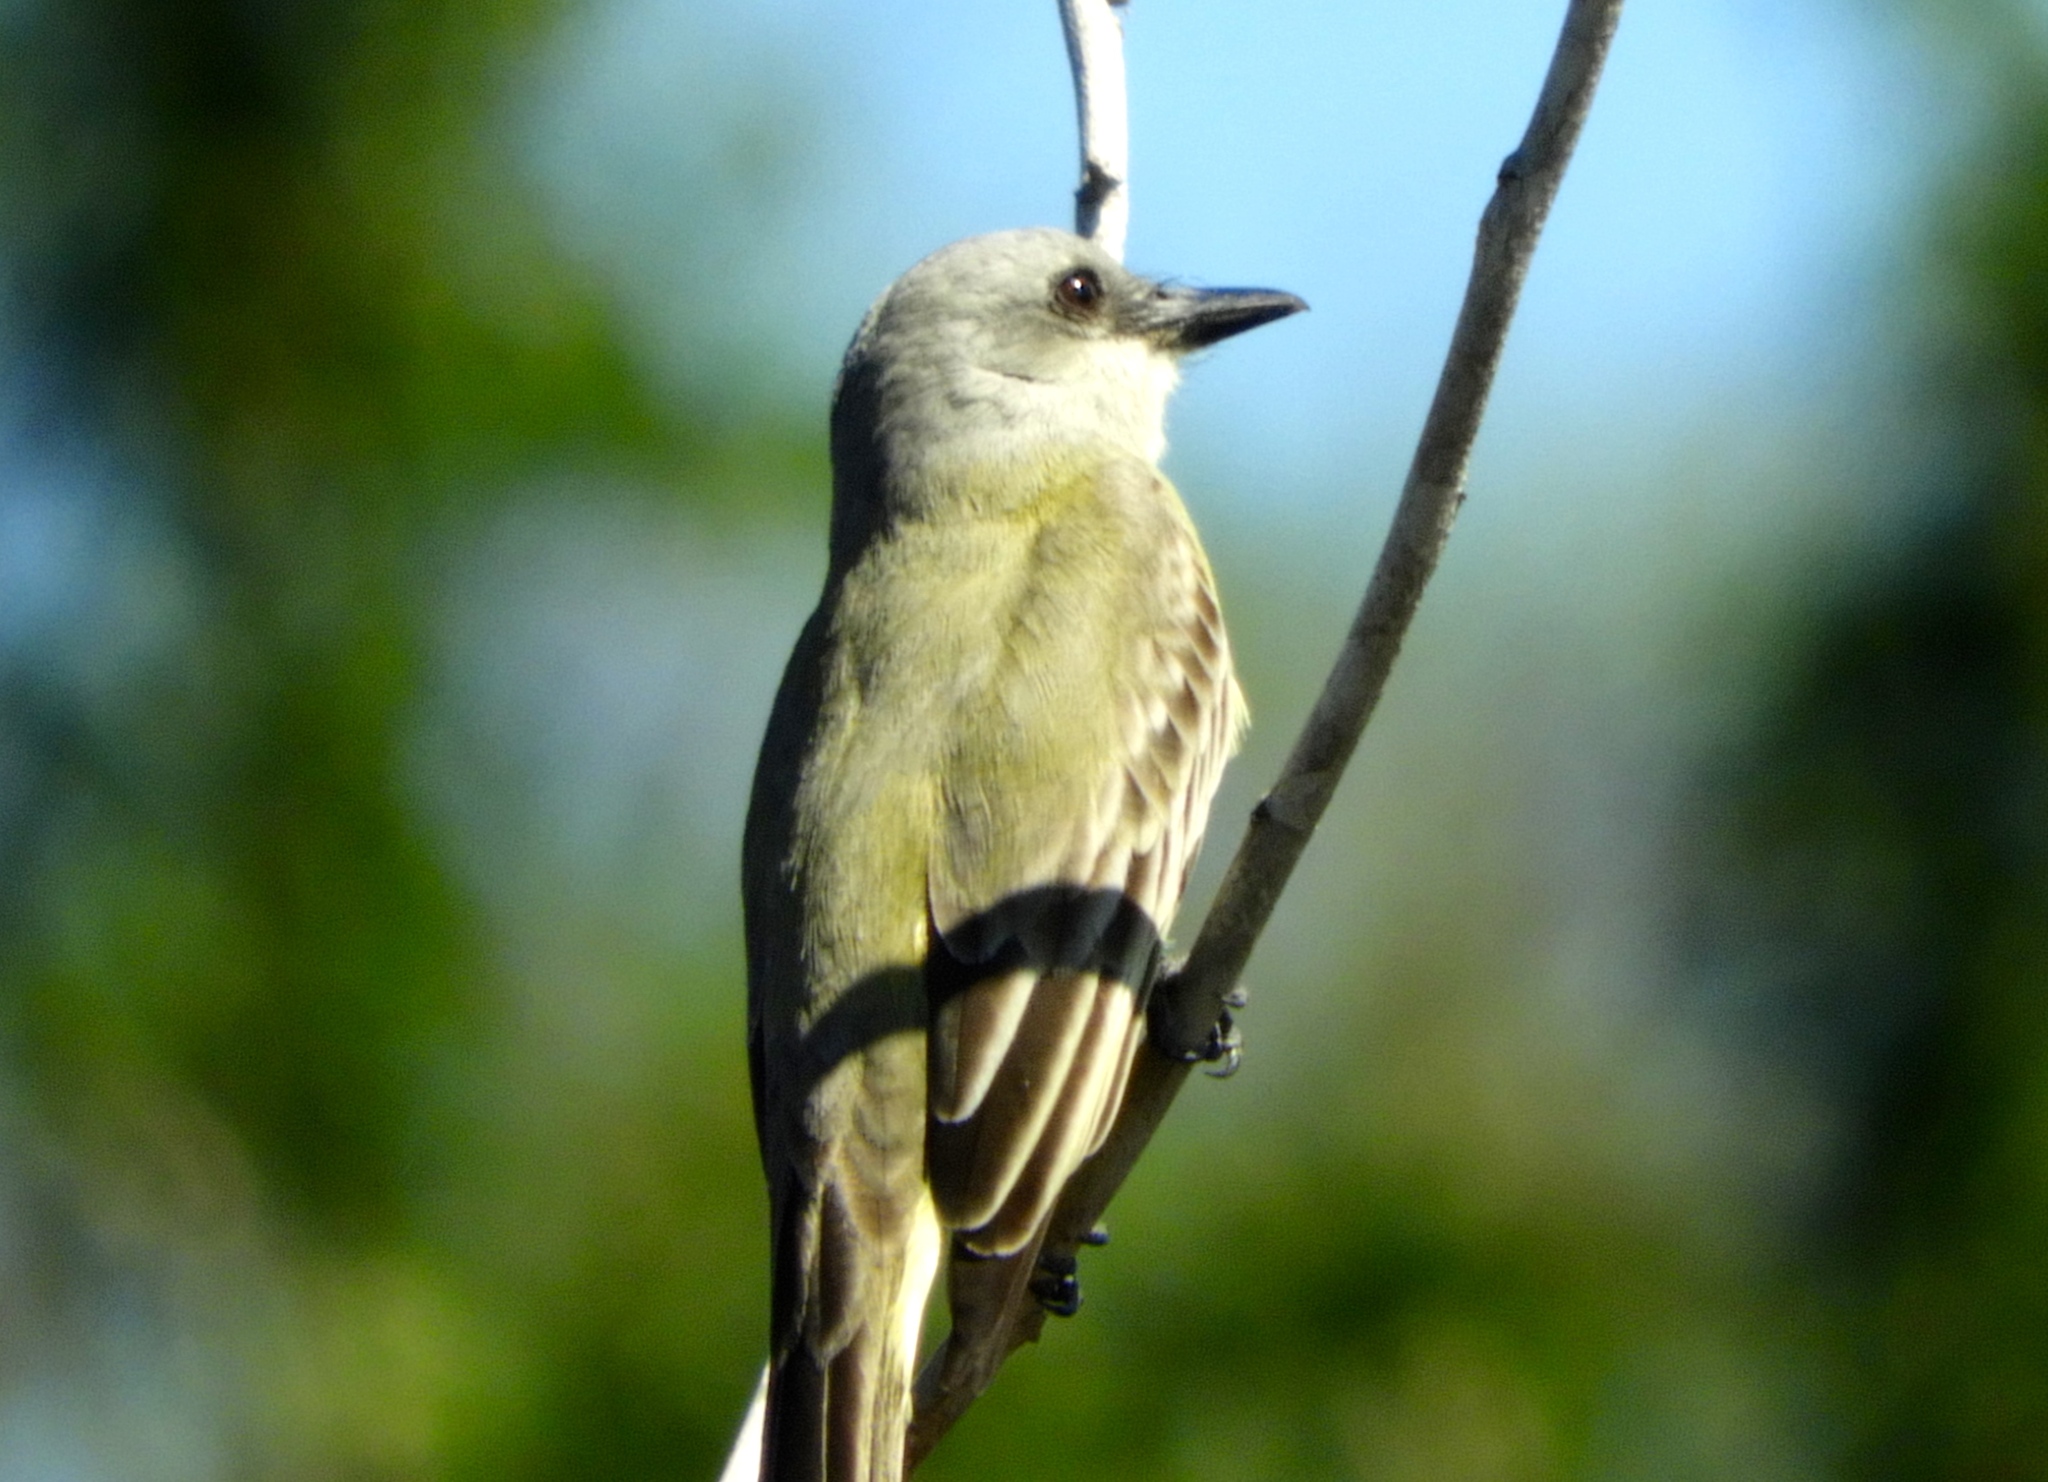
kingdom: Animalia
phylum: Chordata
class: Aves
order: Passeriformes
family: Tyrannidae
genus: Tyrannus
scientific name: Tyrannus melancholicus
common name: Tropical kingbird
